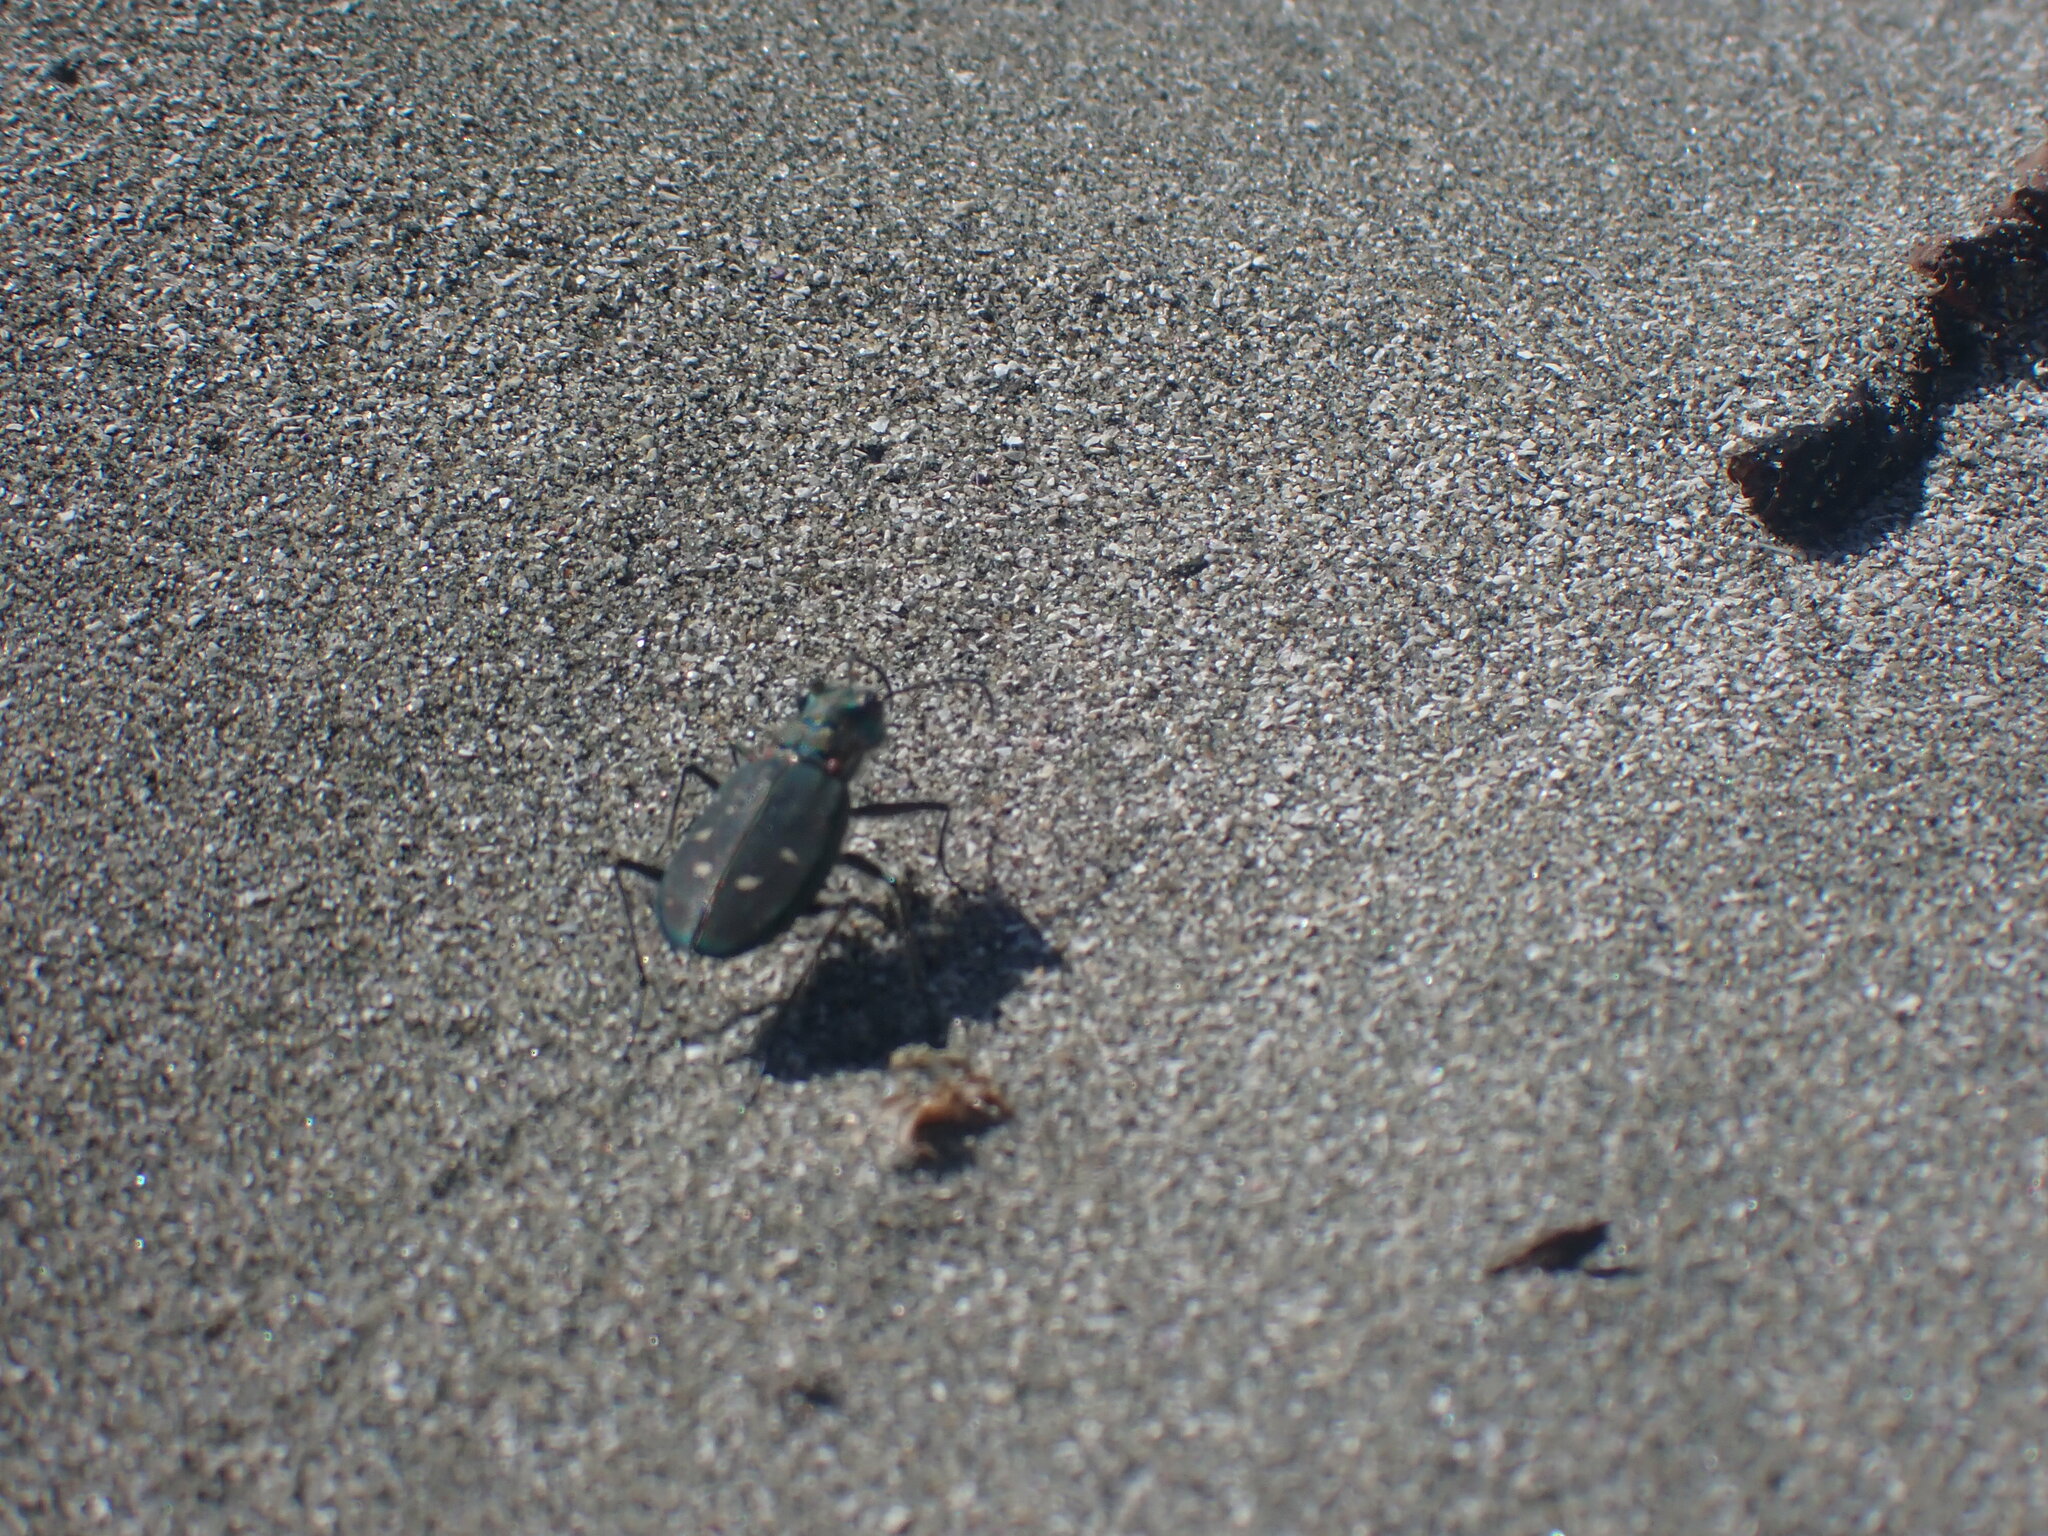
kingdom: Animalia
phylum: Arthropoda
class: Insecta
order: Coleoptera
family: Carabidae
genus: Cicindela
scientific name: Cicindela oregona
